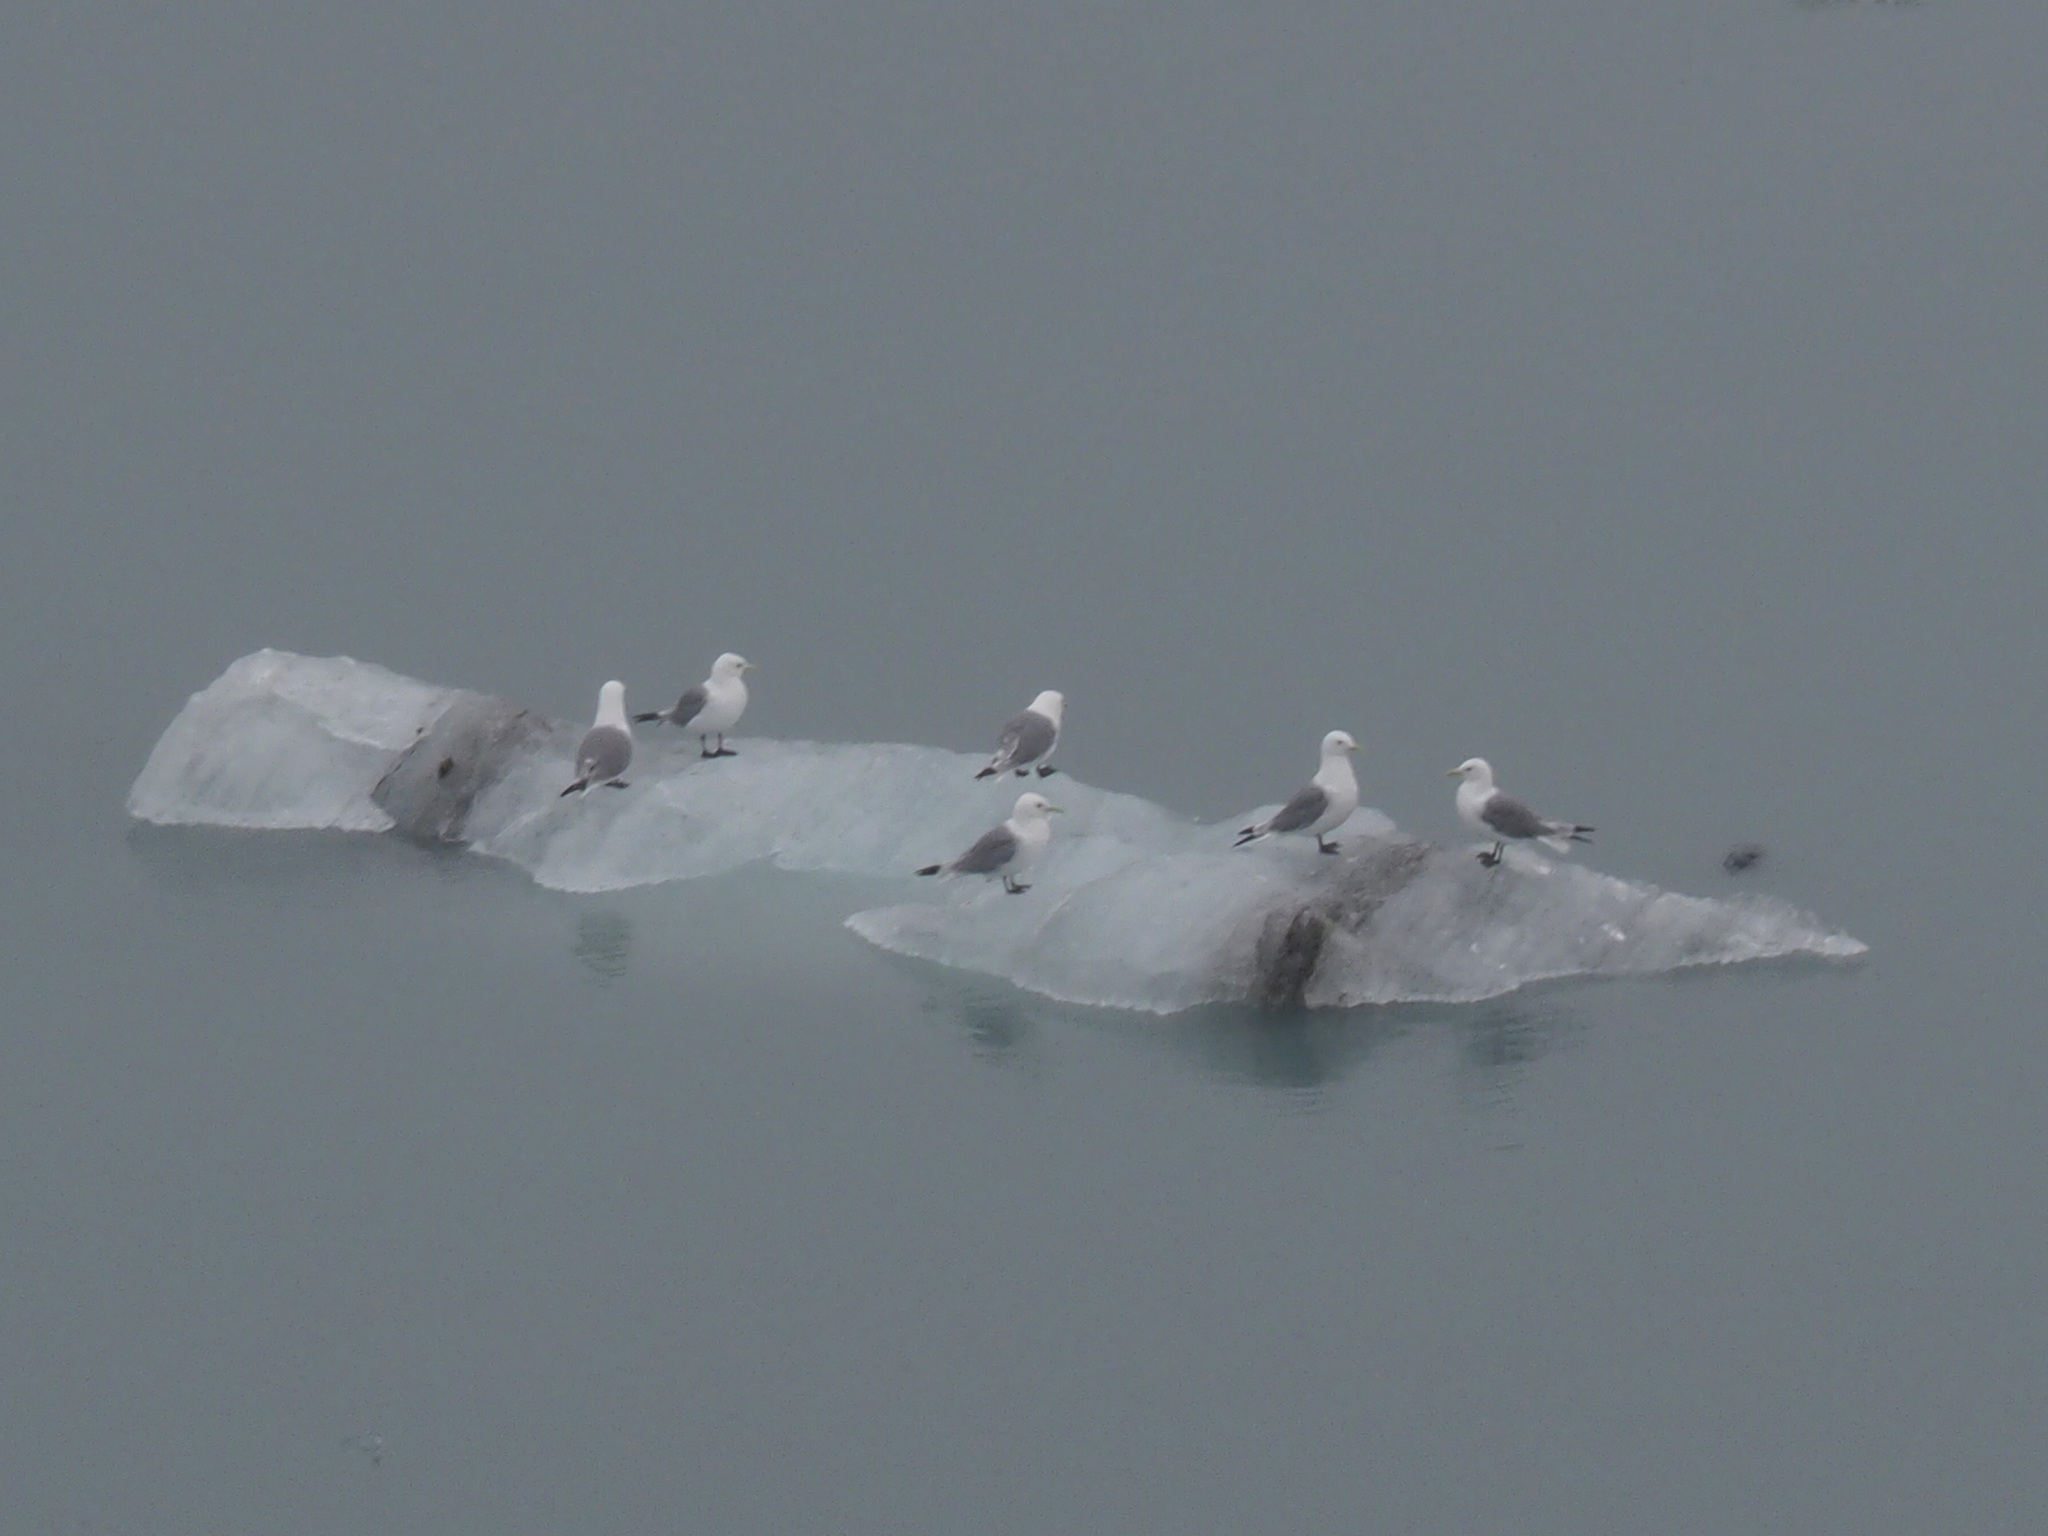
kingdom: Animalia
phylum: Chordata
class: Aves
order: Charadriiformes
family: Laridae
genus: Rissa
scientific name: Rissa tridactyla
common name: Black-legged kittiwake
